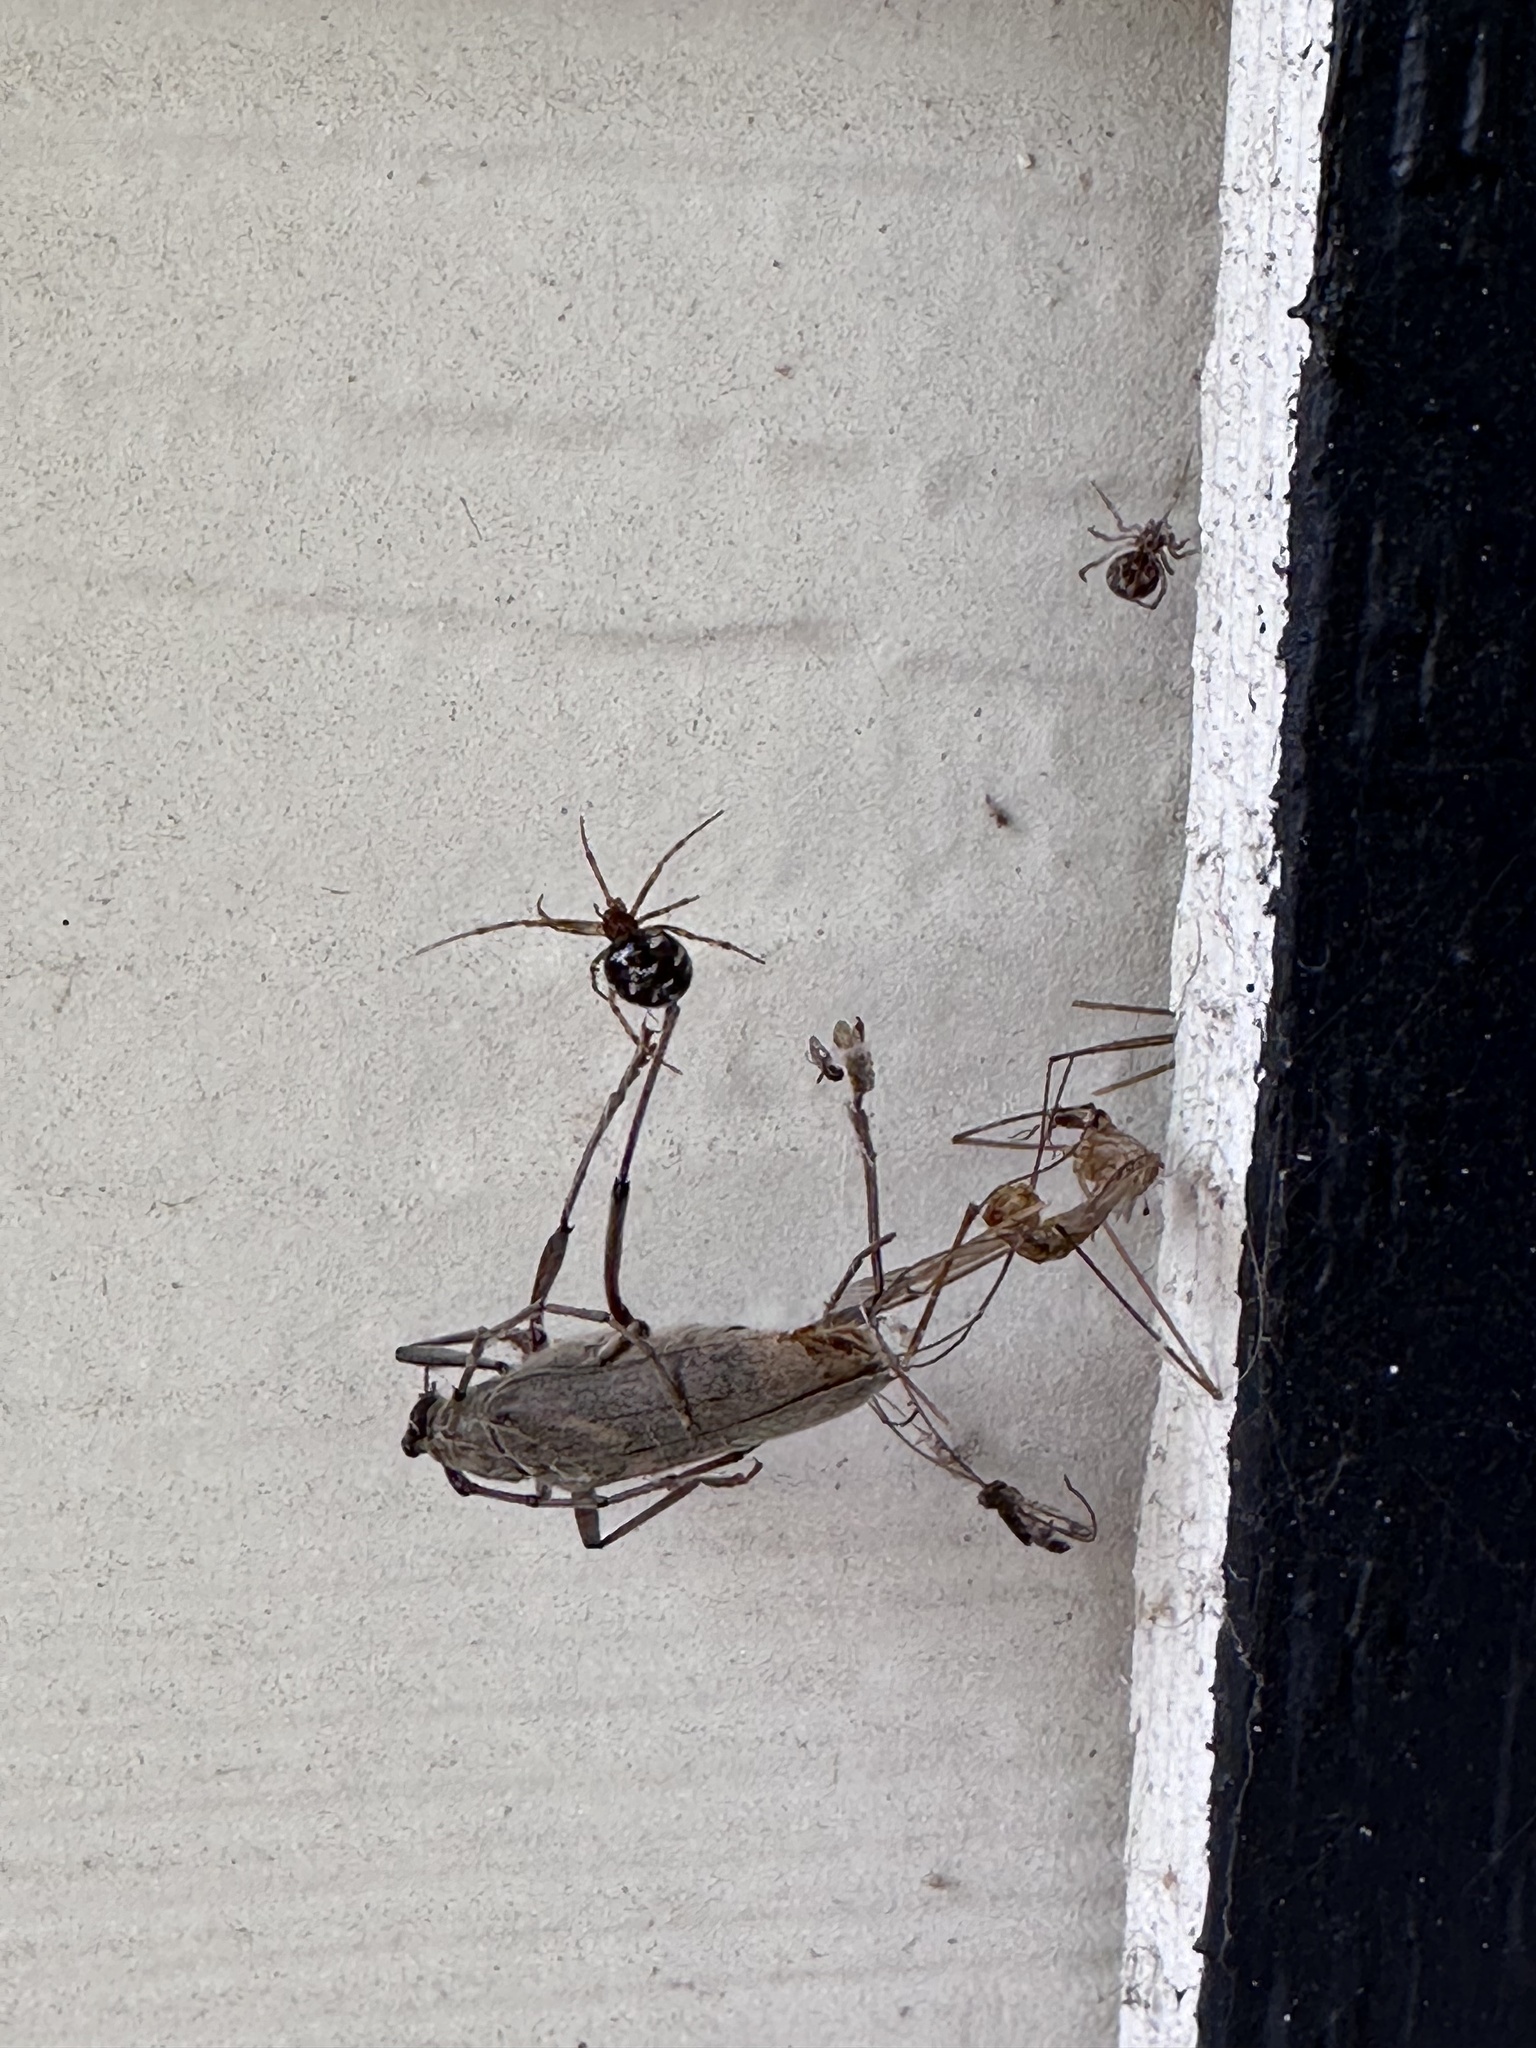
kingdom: Animalia
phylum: Arthropoda
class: Arachnida
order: Araneae
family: Theridiidae
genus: Steatoda
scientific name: Steatoda triangulosa
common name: Triangulate bud spider
